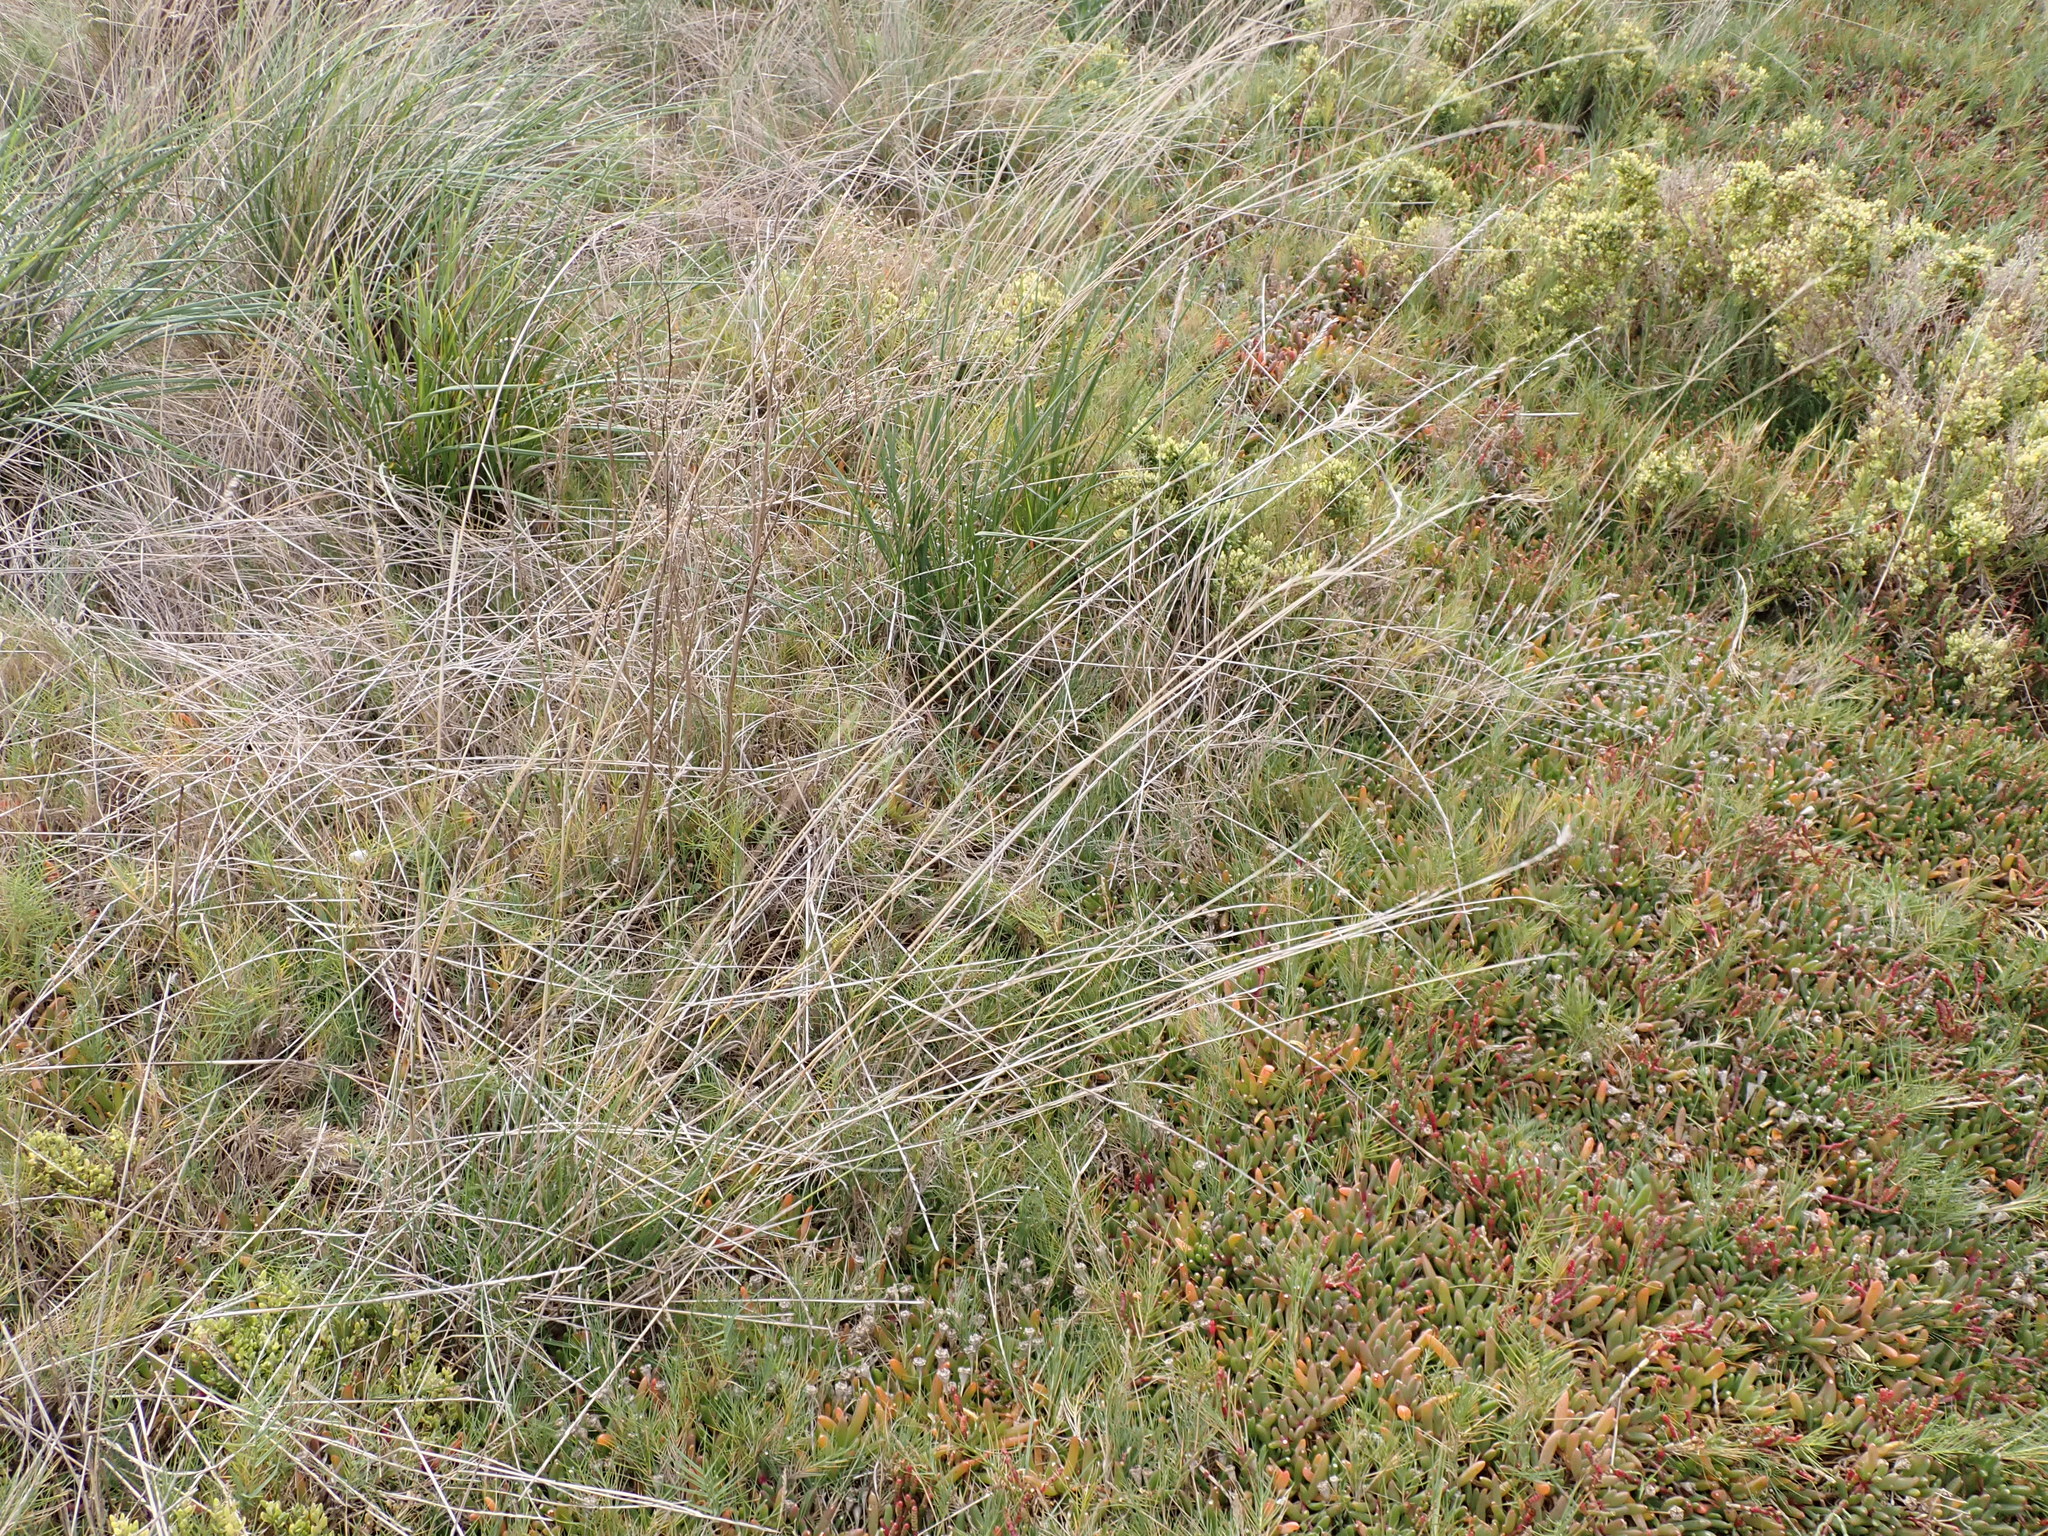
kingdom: Plantae
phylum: Tracheophyta
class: Liliopsida
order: Poales
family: Poaceae
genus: Anthosachne
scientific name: Anthosachne scabra
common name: Common wheatgrass
